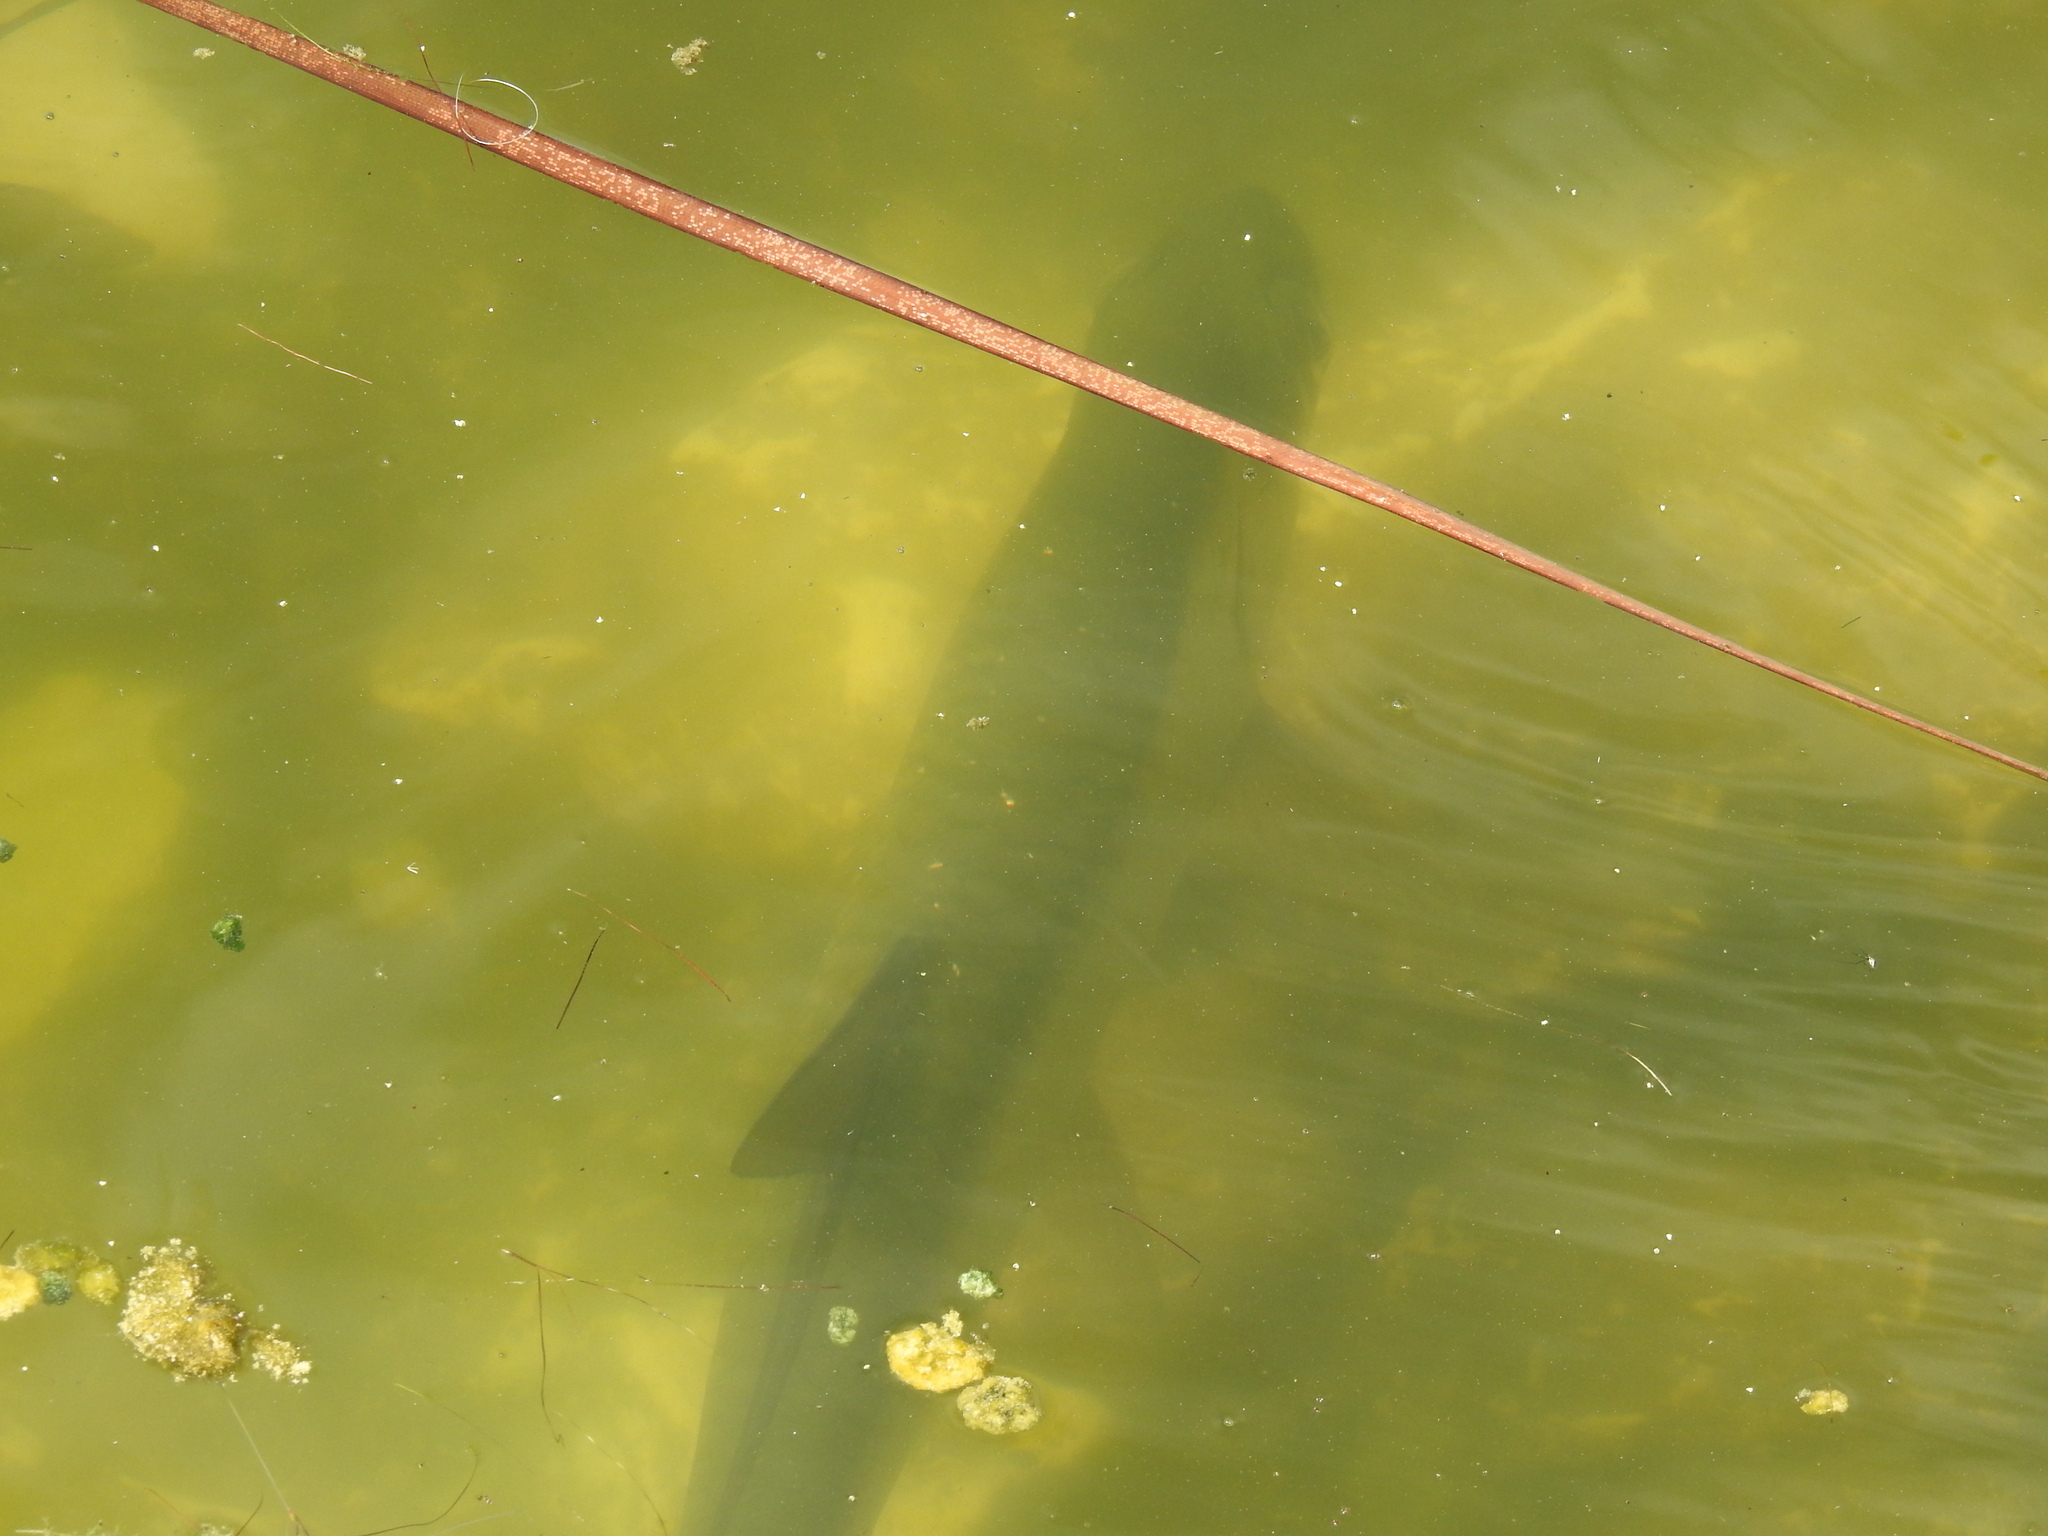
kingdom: Animalia
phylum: Chordata
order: Elopiformes
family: Megalopidae
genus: Megalops
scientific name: Megalops atlanticus
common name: Tarpon
